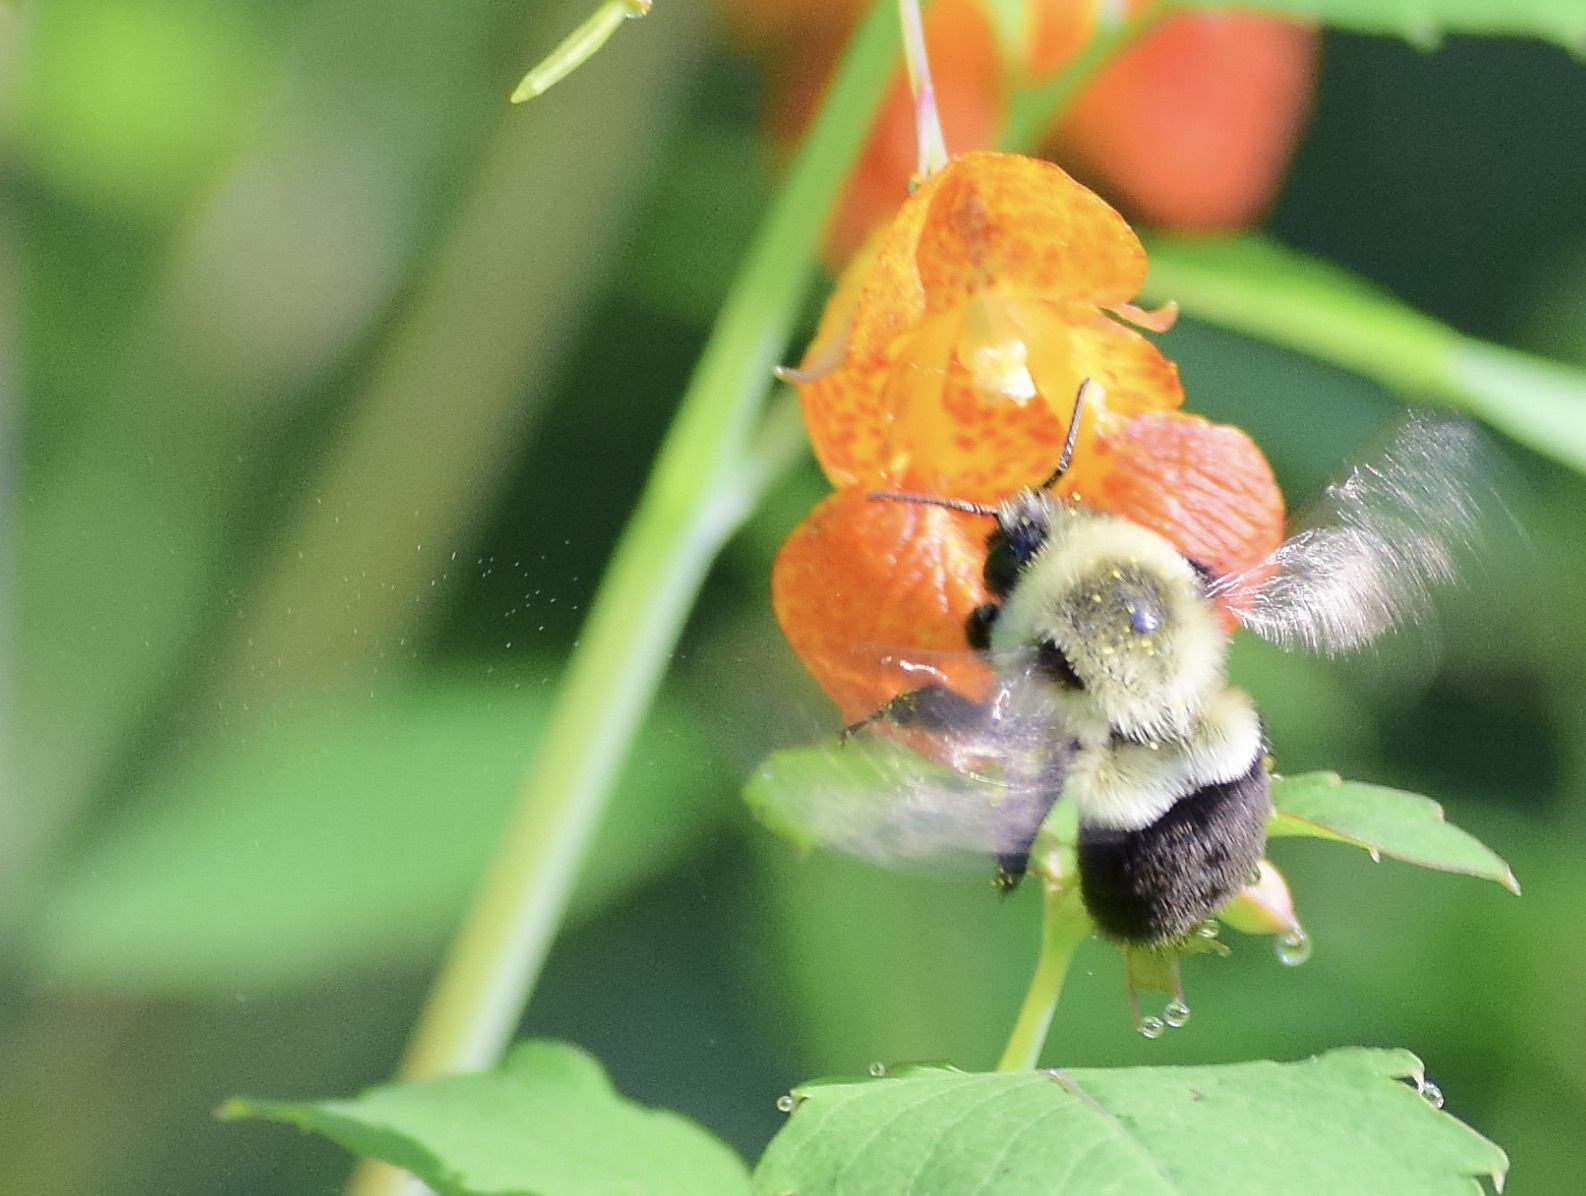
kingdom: Animalia
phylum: Arthropoda
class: Insecta
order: Hymenoptera
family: Apidae
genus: Bombus
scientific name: Bombus impatiens
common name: Common eastern bumble bee
